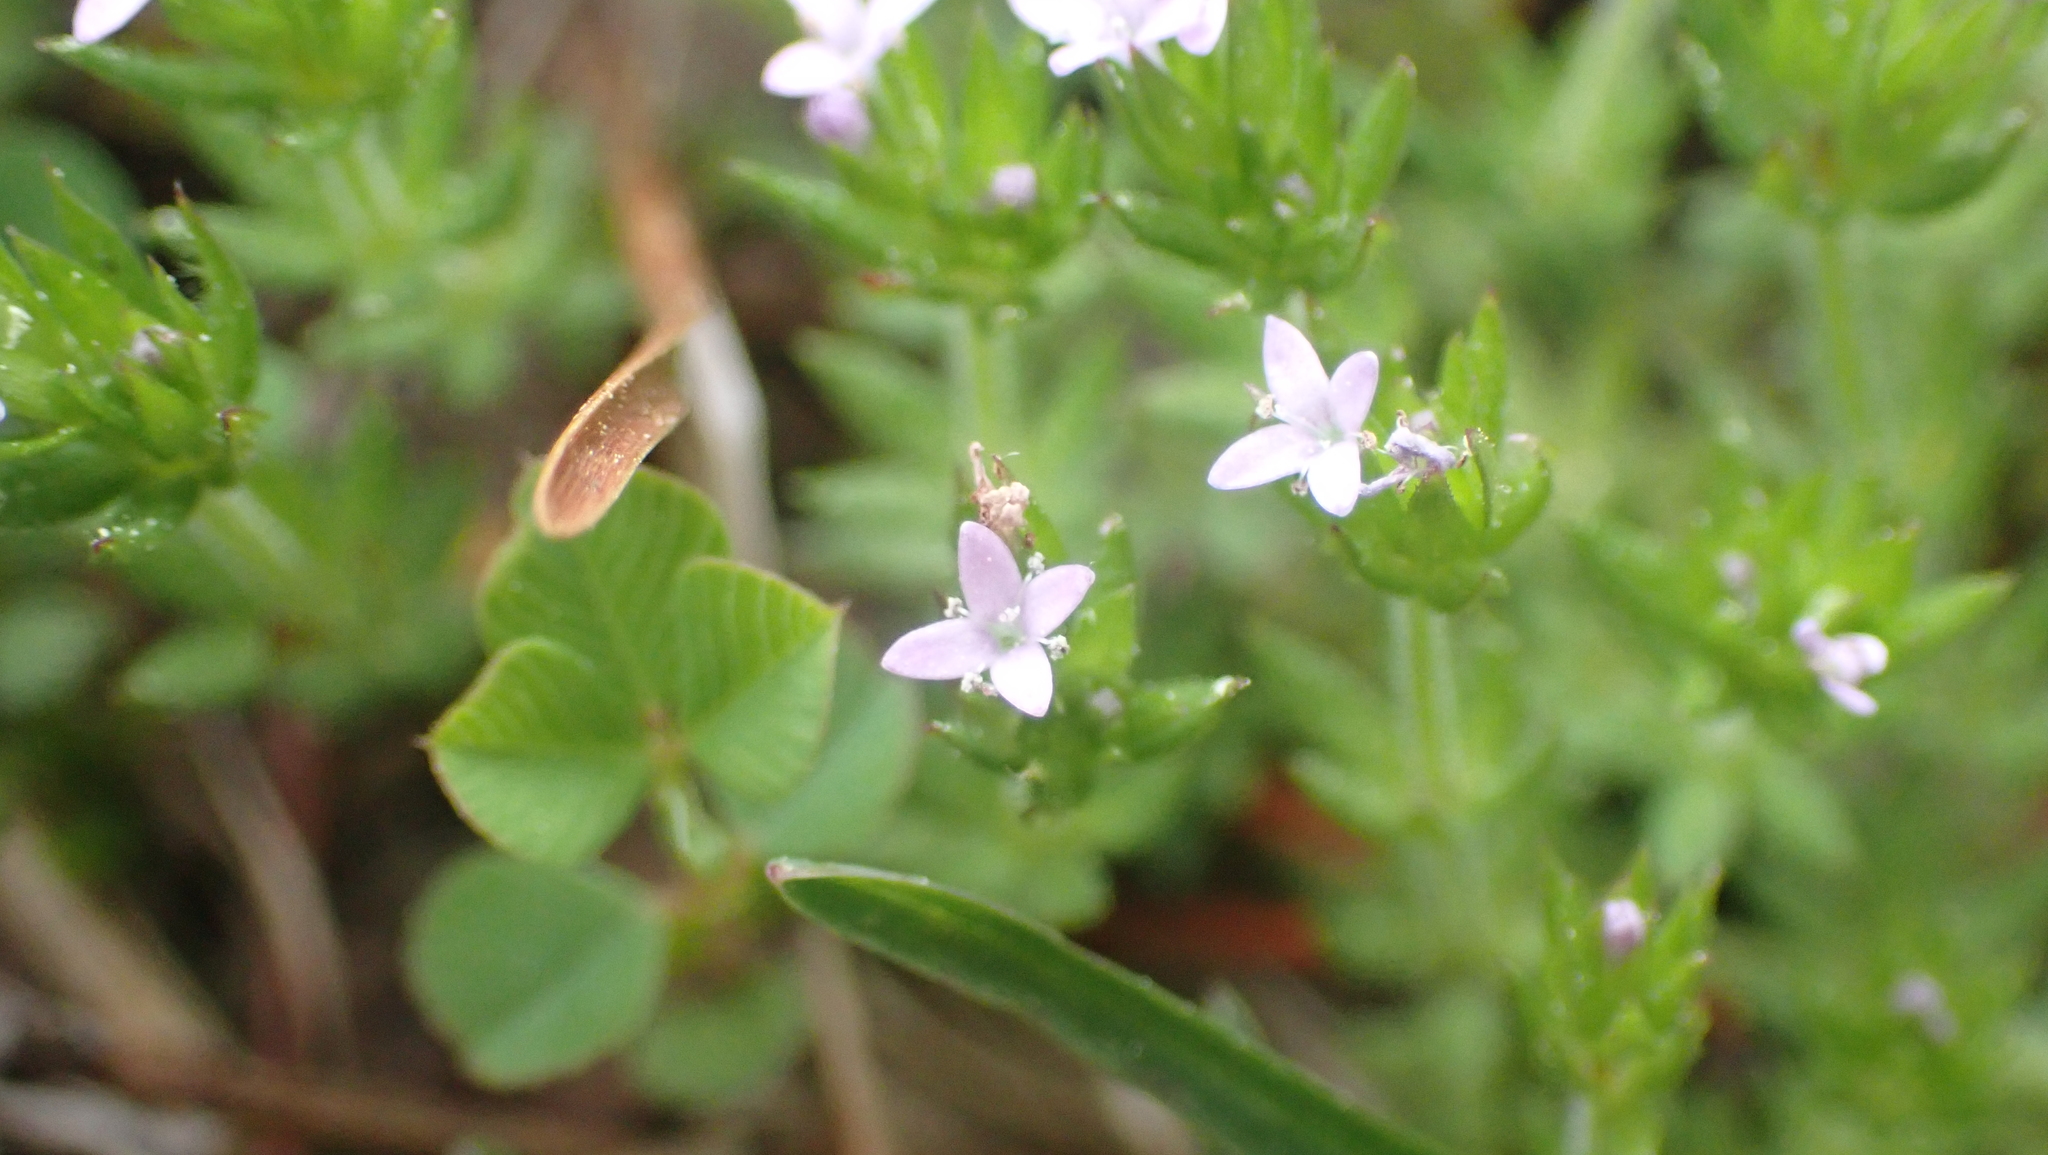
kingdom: Plantae
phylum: Tracheophyta
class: Magnoliopsida
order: Gentianales
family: Rubiaceae
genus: Sherardia
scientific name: Sherardia arvensis
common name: Field madder
